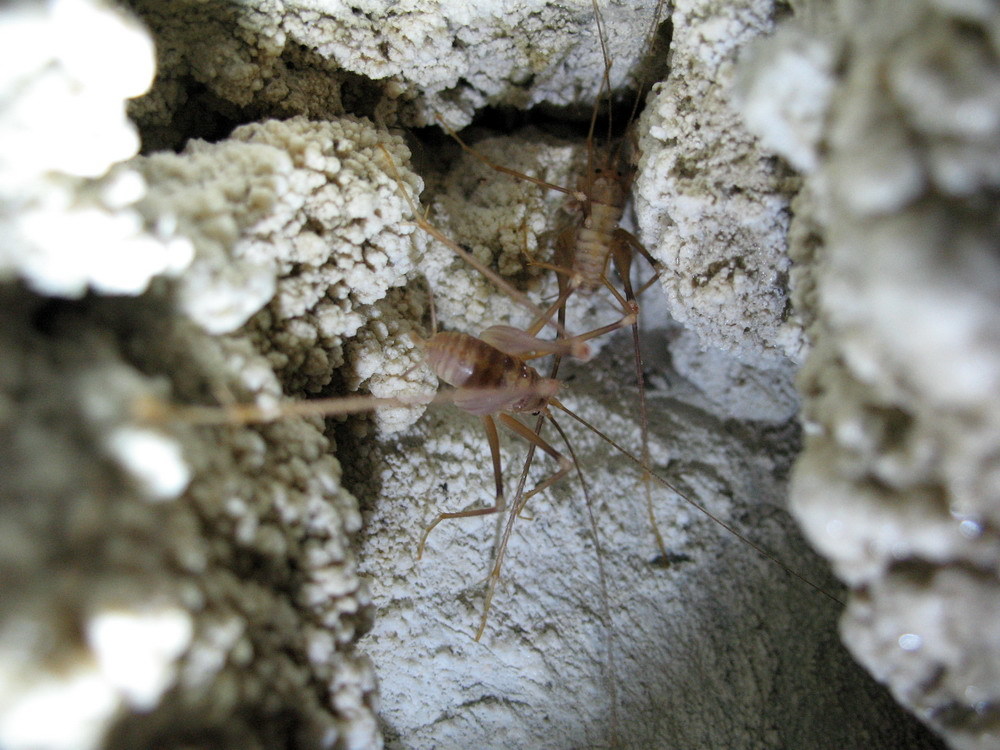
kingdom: Animalia
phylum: Arthropoda
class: Insecta
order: Orthoptera
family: Rhaphidophoridae
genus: Dolichopoda
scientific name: Dolichopoda azami
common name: Azam's cave-cricket
